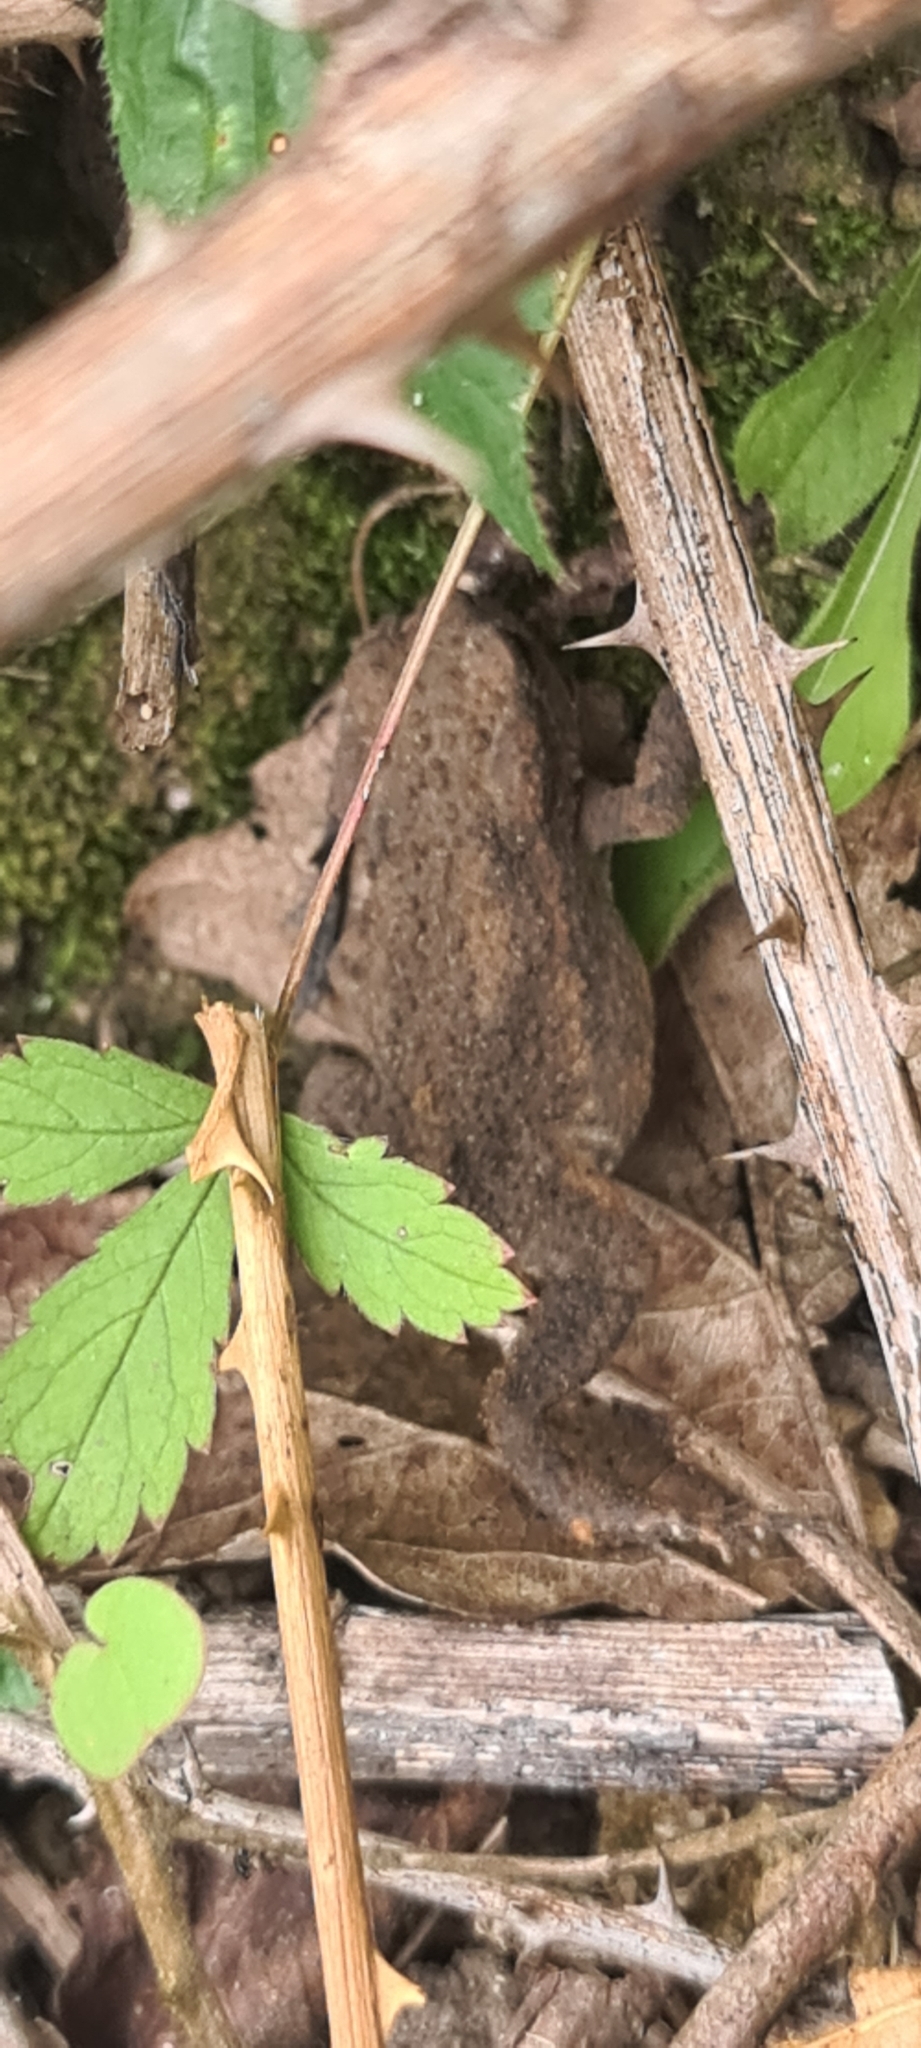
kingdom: Animalia
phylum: Chordata
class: Amphibia
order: Anura
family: Bufonidae
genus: Bufo
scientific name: Bufo bufo
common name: Common toad
